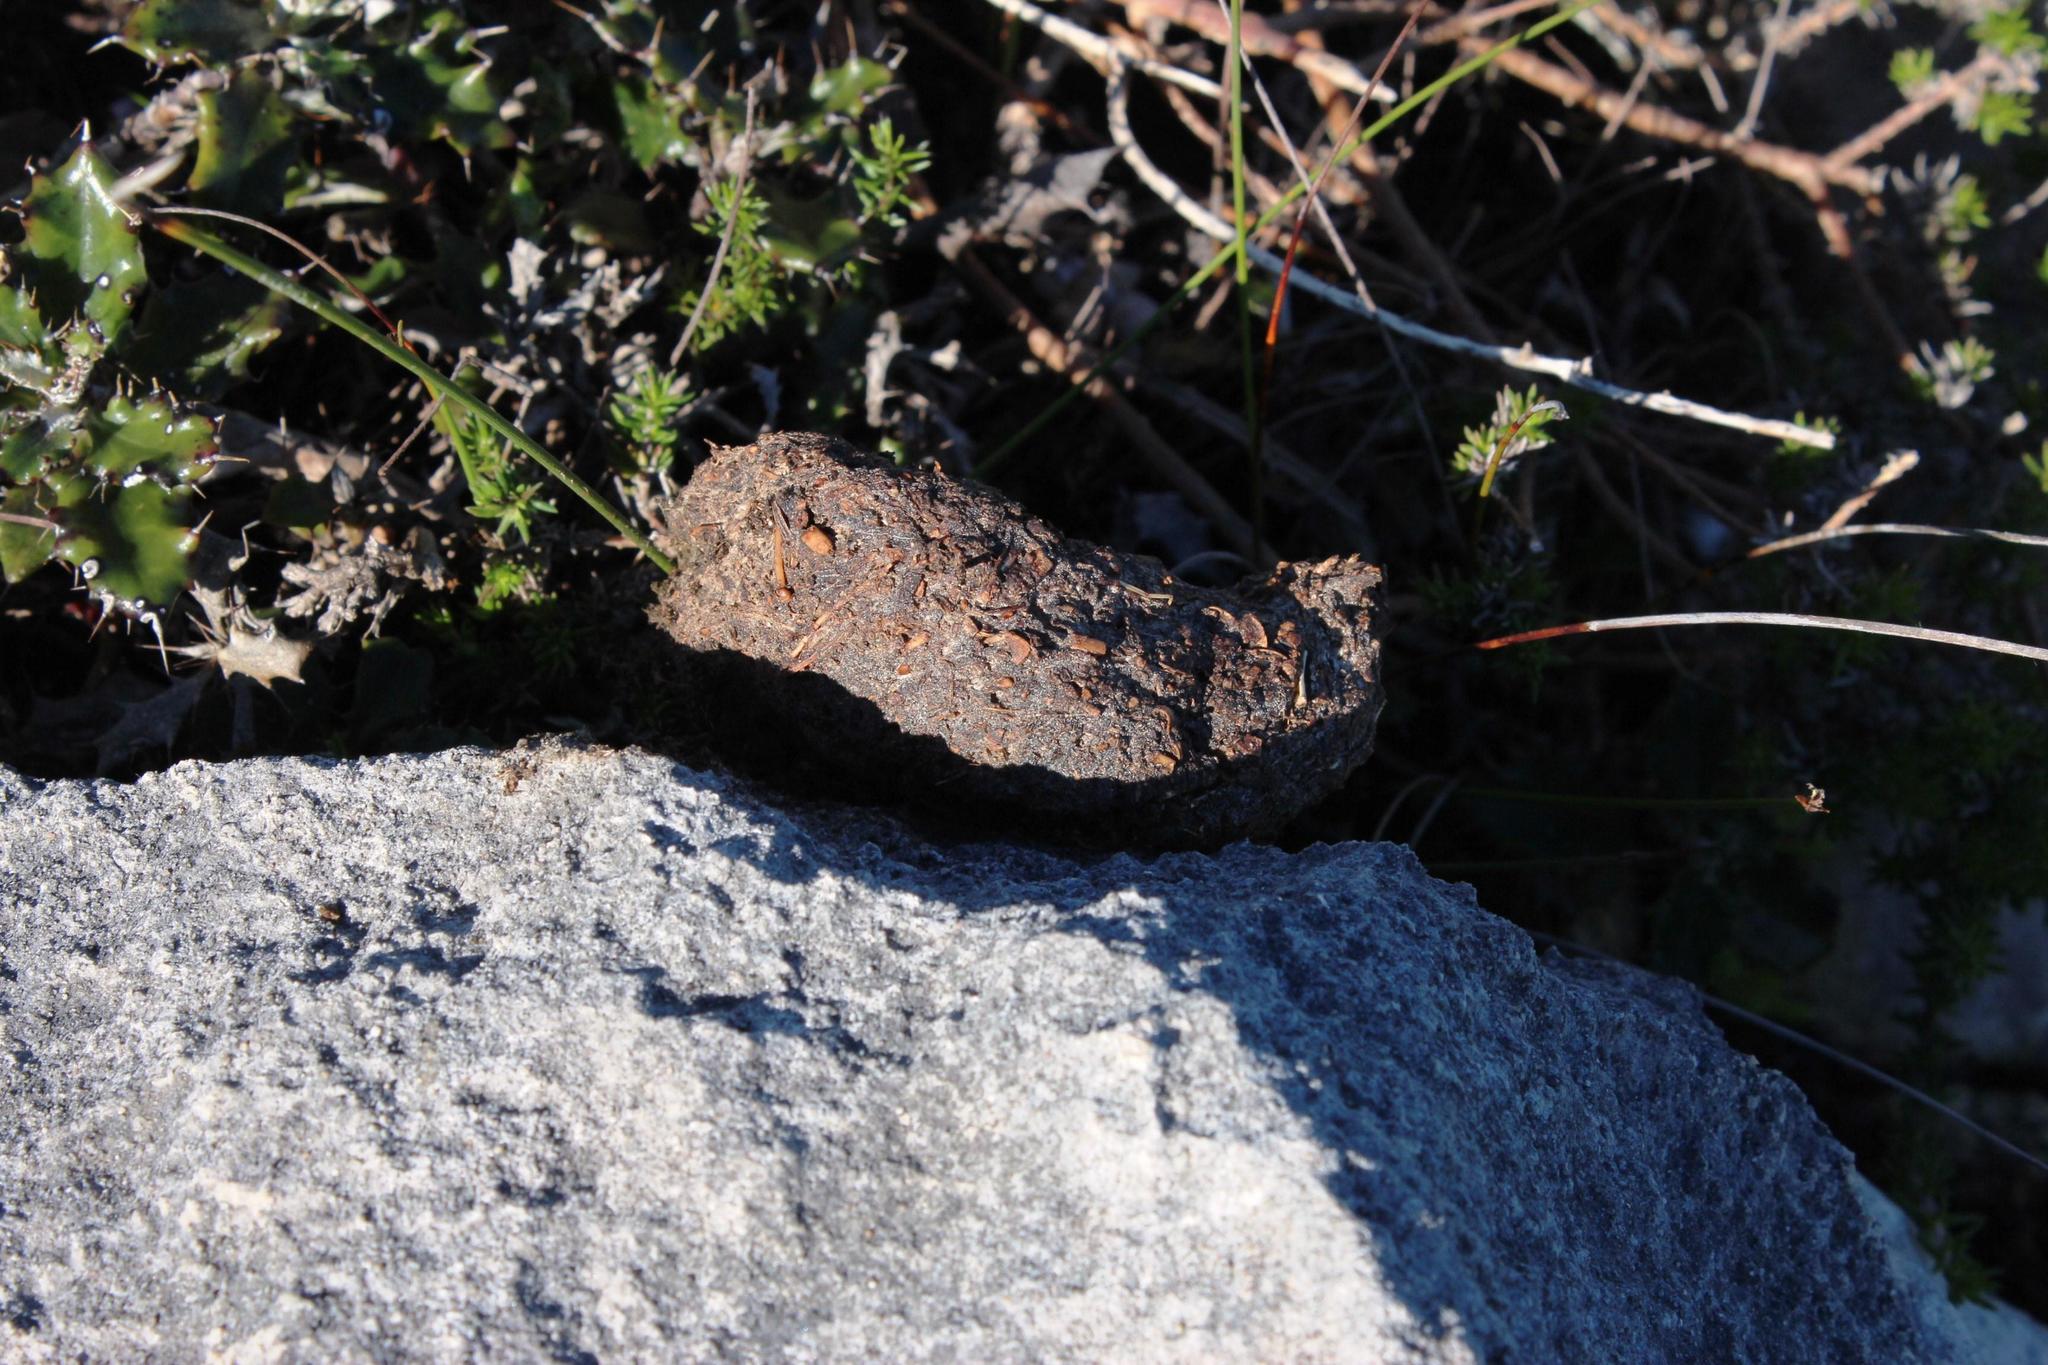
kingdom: Animalia
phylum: Chordata
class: Mammalia
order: Primates
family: Cercopithecidae
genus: Papio
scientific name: Papio ursinus
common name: Chacma baboon
